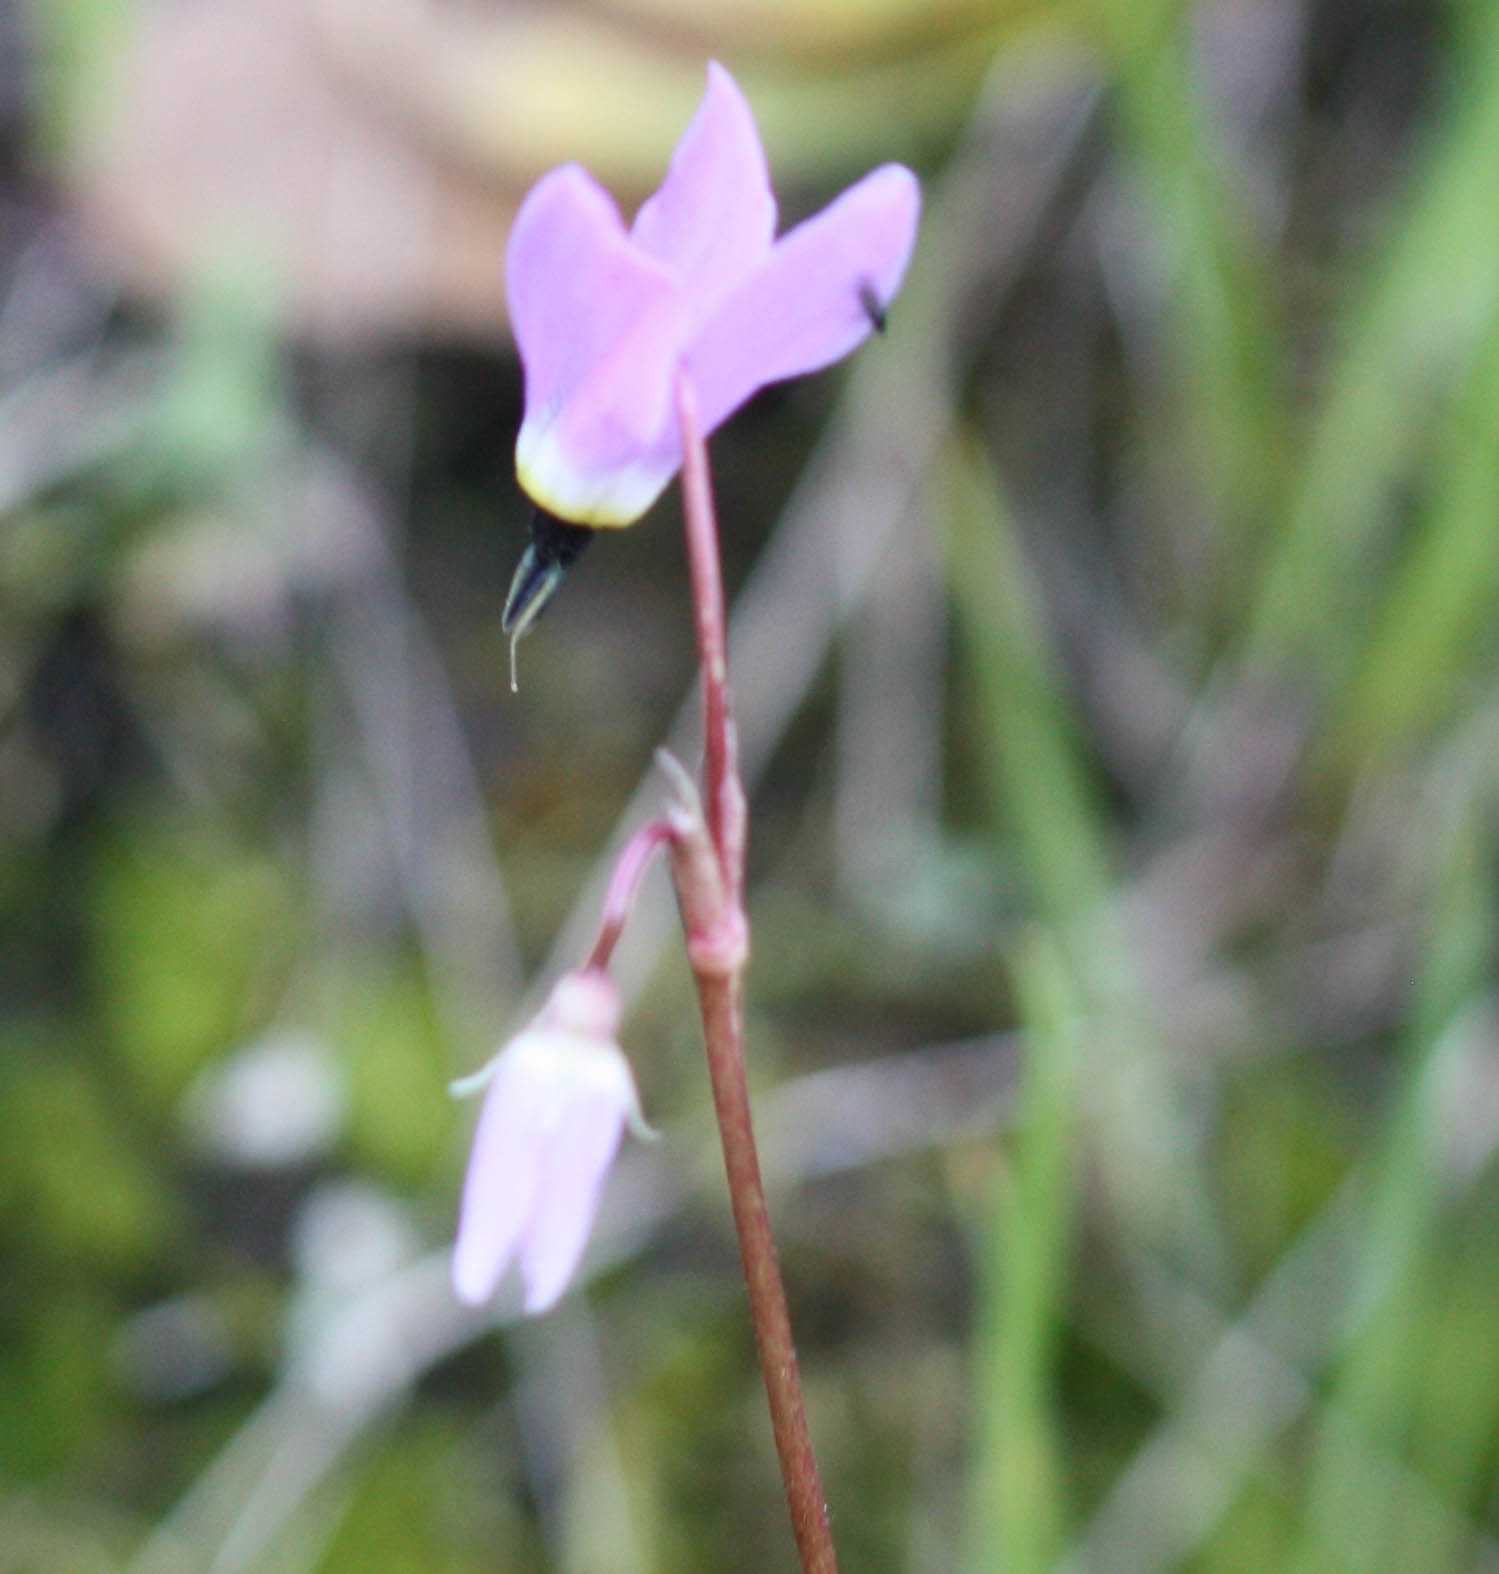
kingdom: Plantae
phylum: Tracheophyta
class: Magnoliopsida
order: Ericales
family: Primulaceae
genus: Dodecatheon
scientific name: Dodecatheon hendersonii
